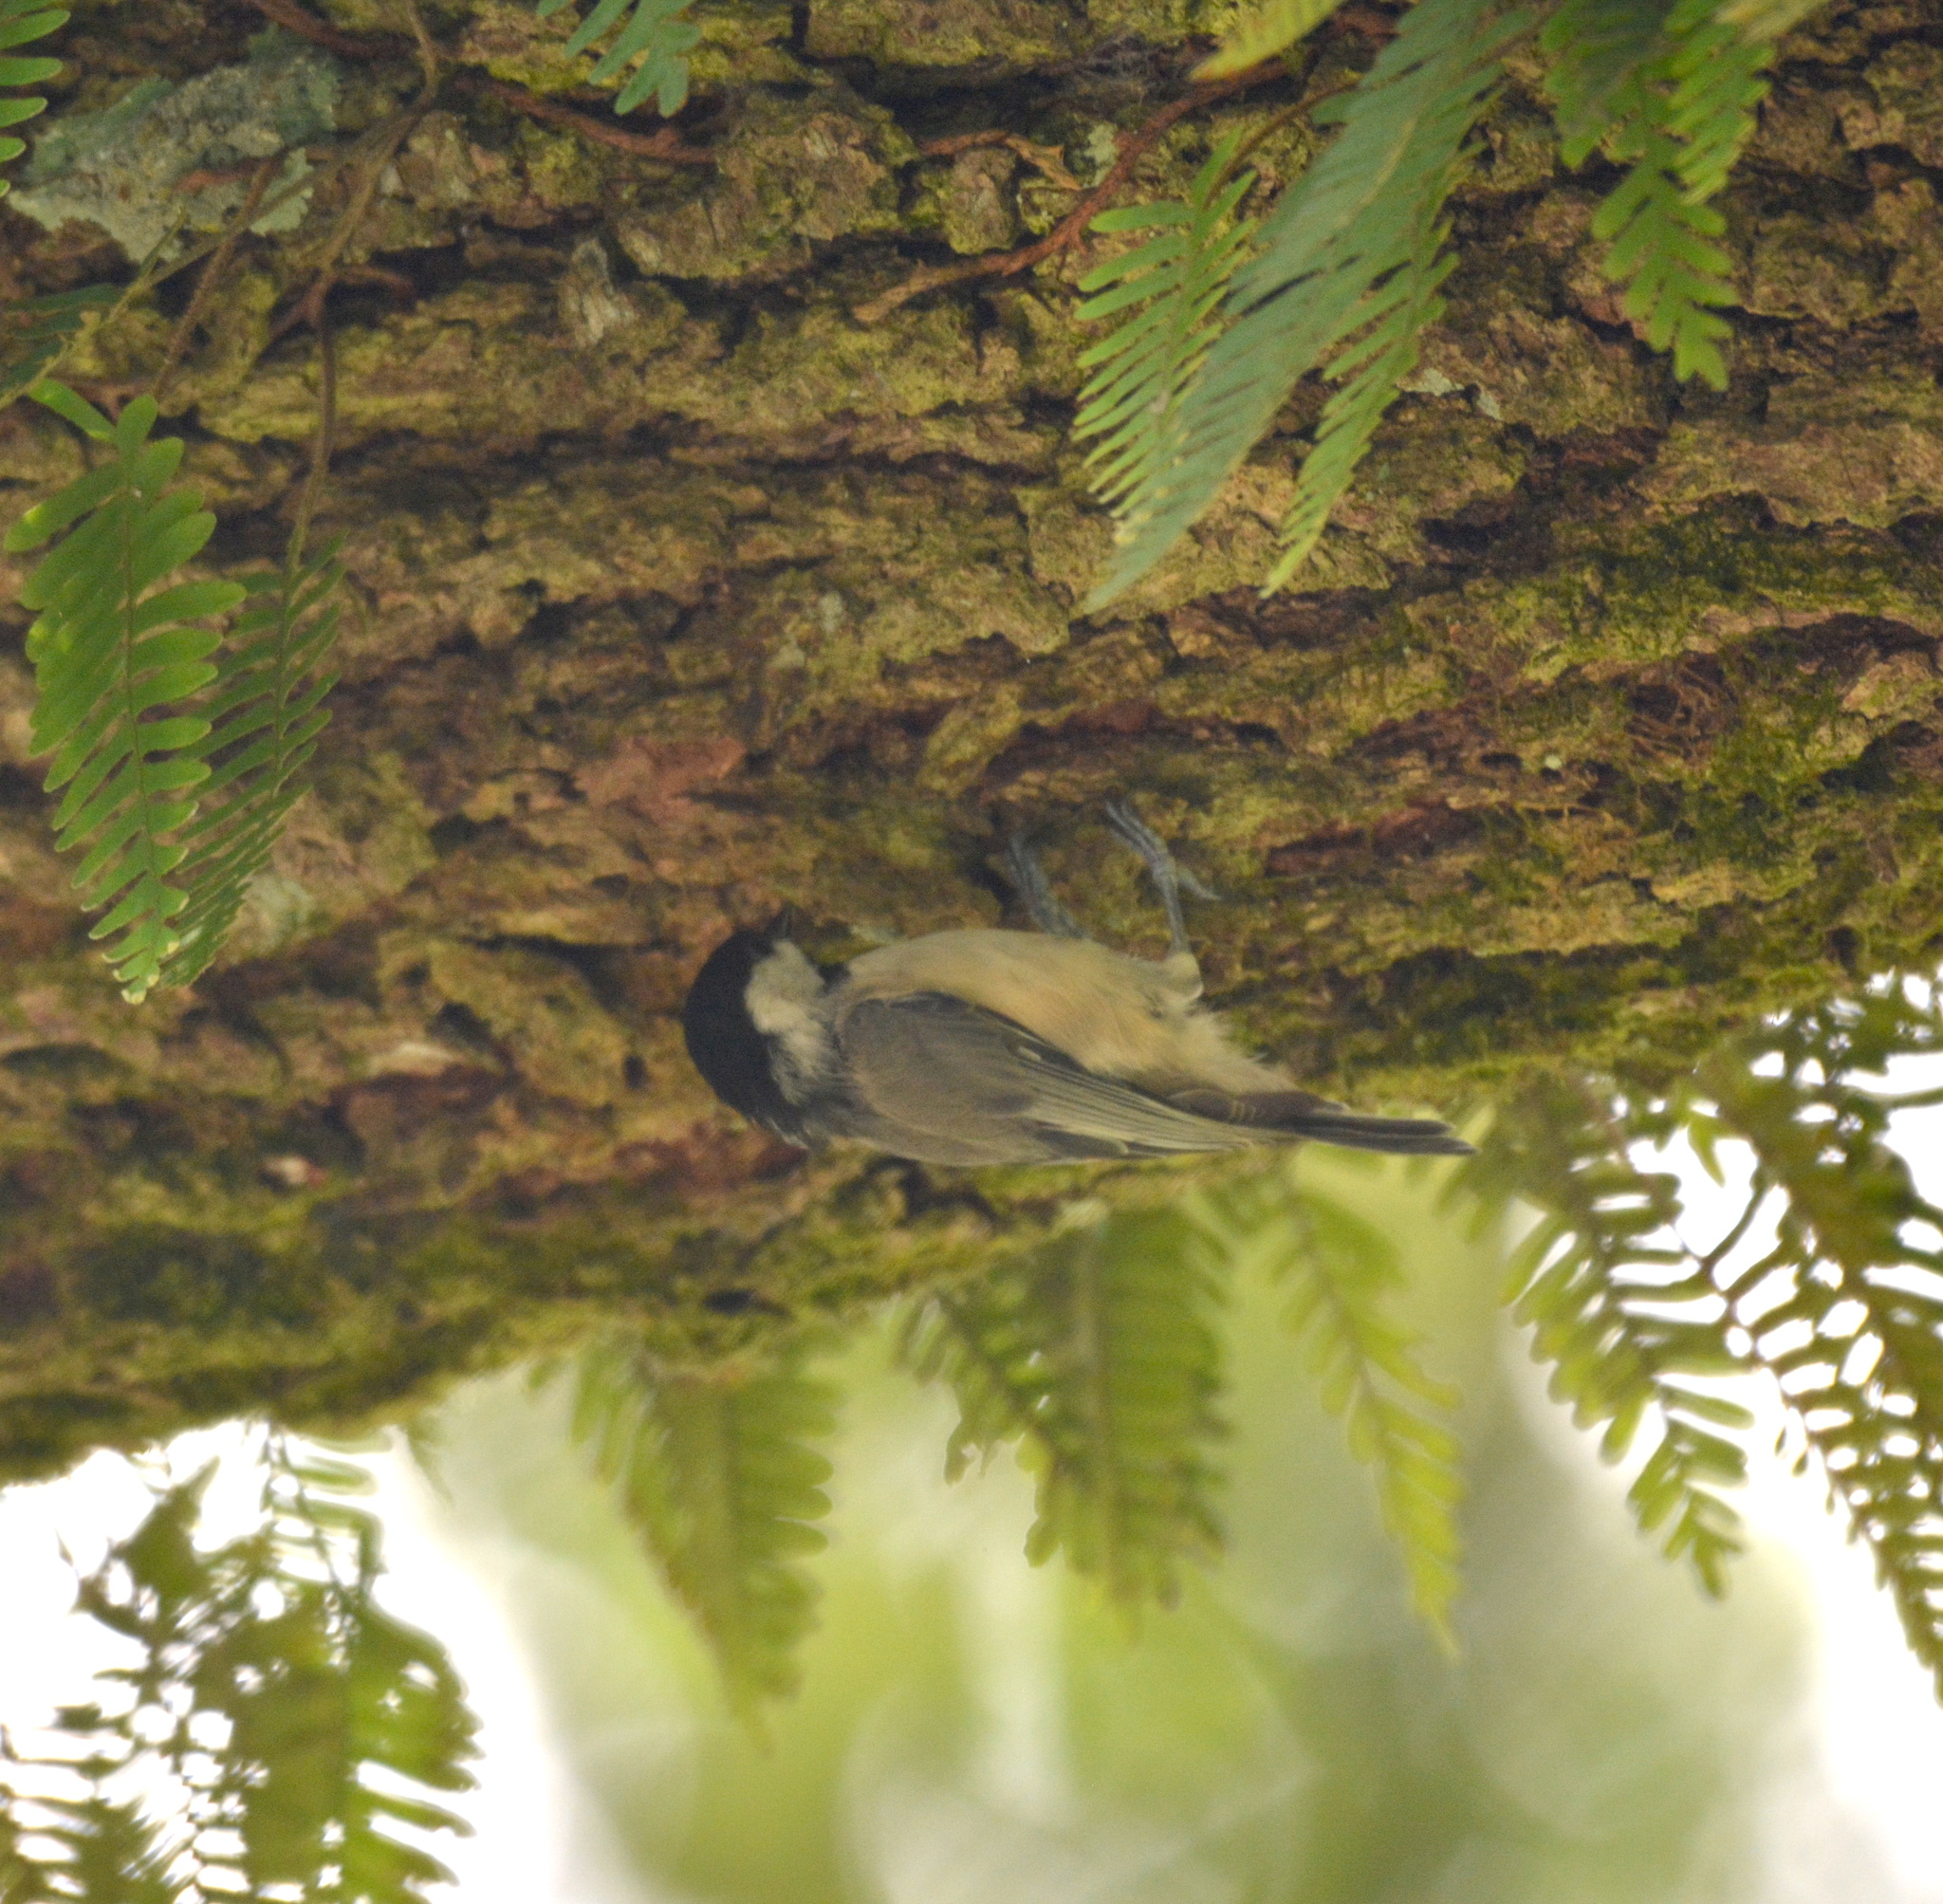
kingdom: Animalia
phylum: Chordata
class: Aves
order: Passeriformes
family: Paridae
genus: Poecile
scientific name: Poecile carolinensis
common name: Carolina chickadee
